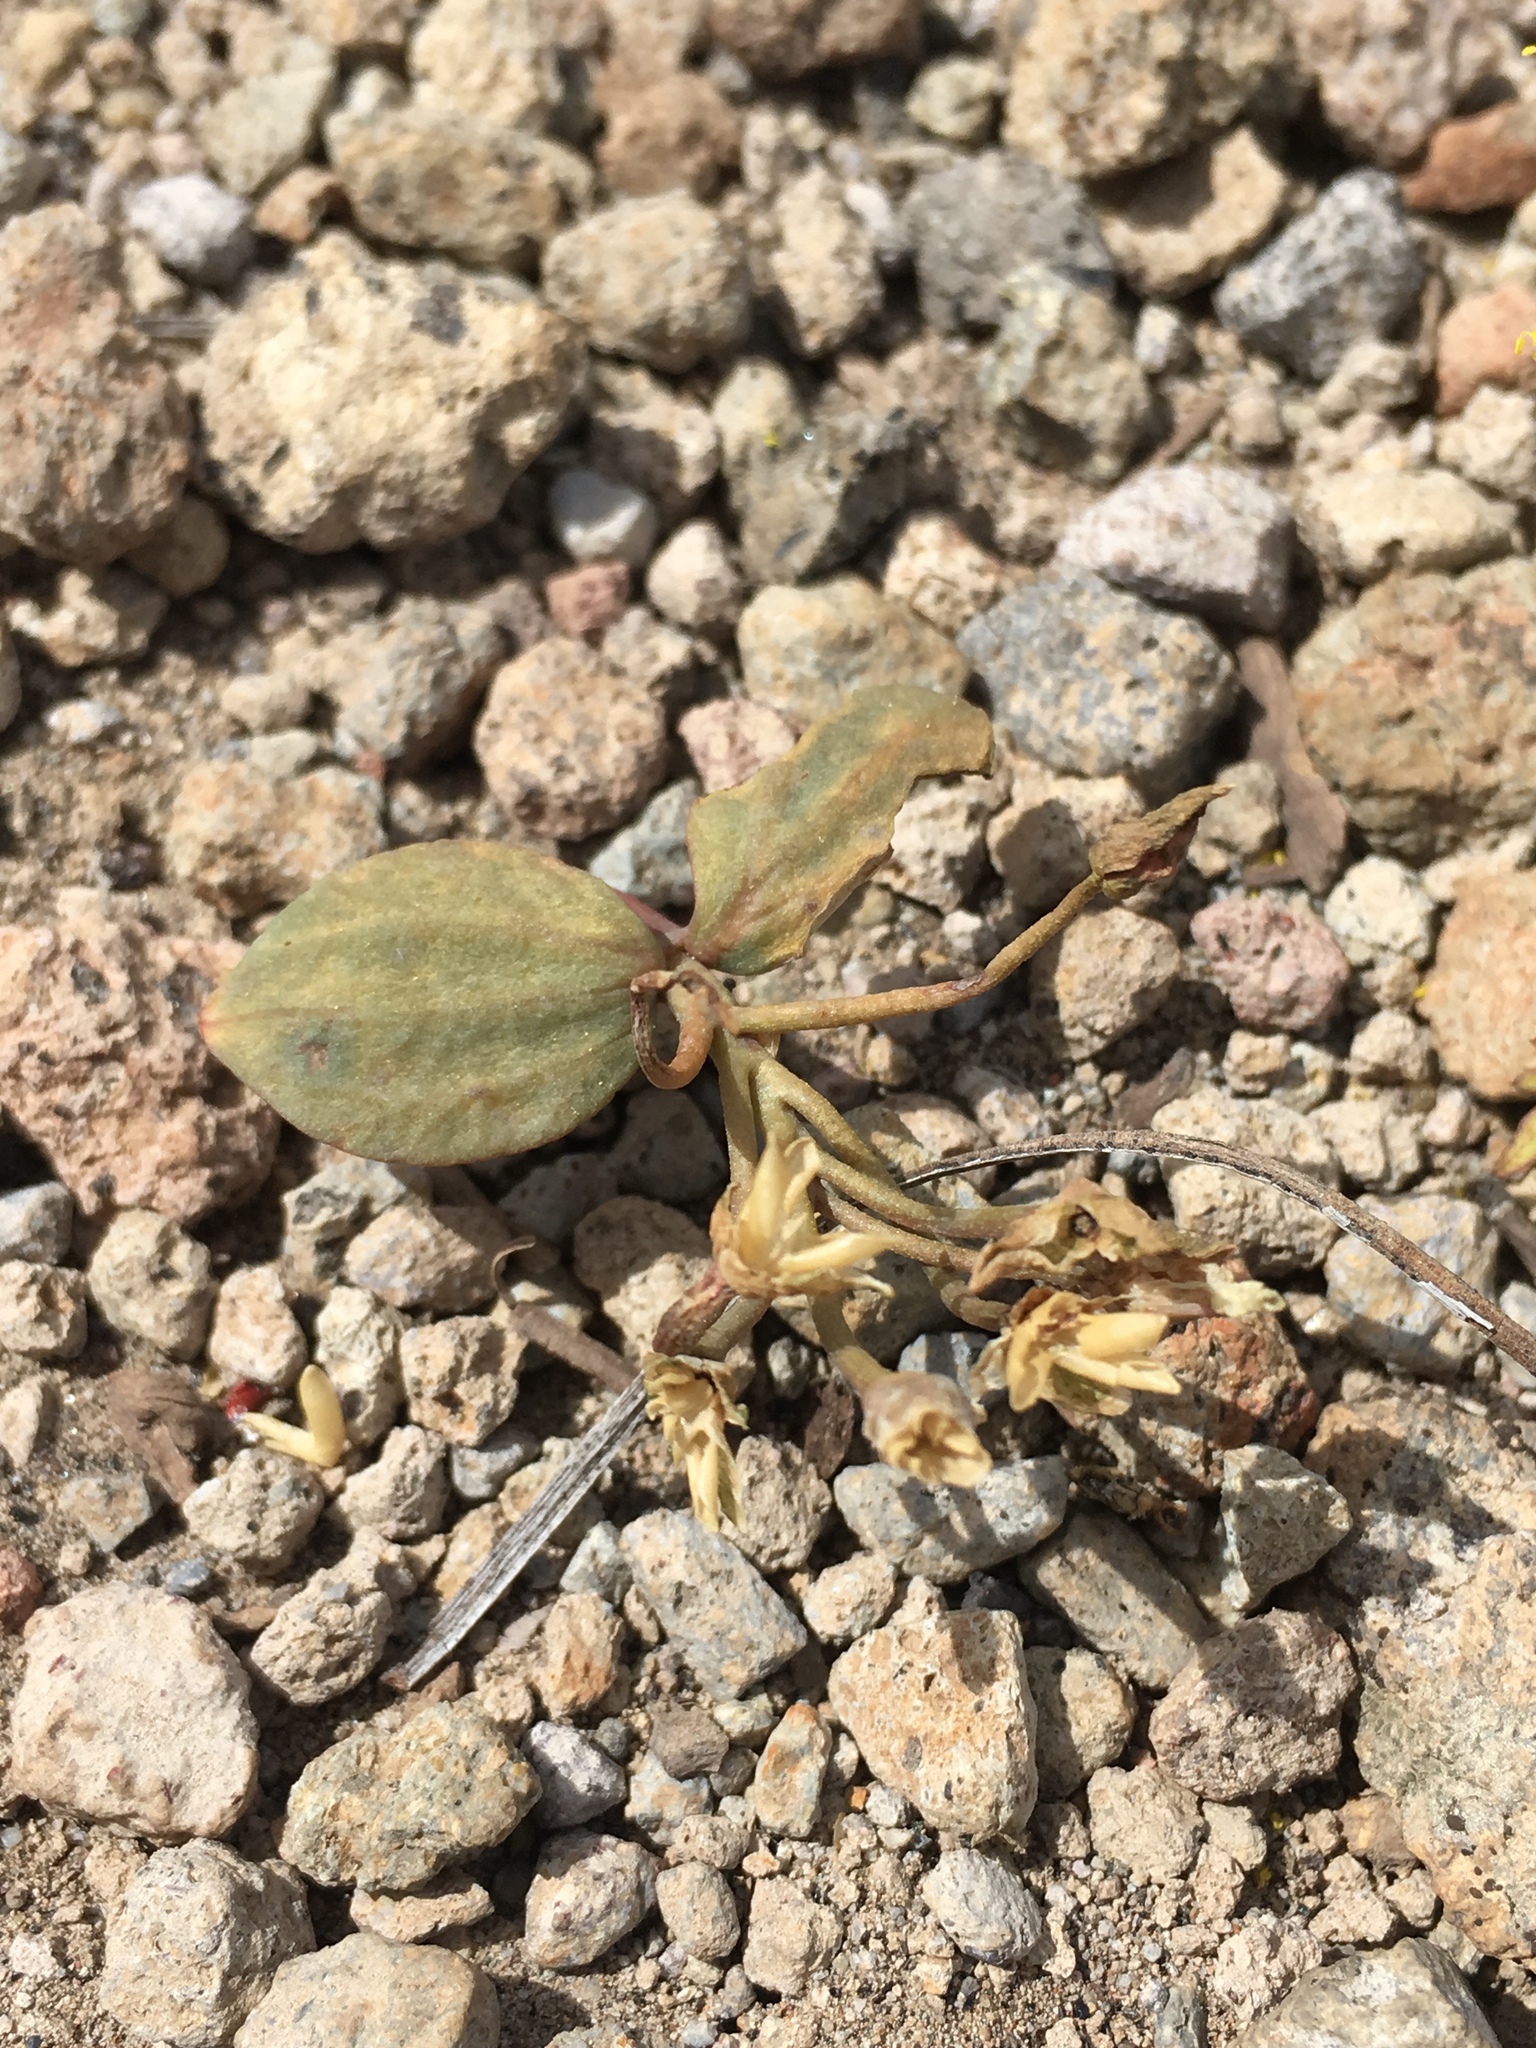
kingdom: Plantae
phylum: Tracheophyta
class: Magnoliopsida
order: Caryophyllales
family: Montiaceae
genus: Claytonia
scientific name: Claytonia crawfordii
